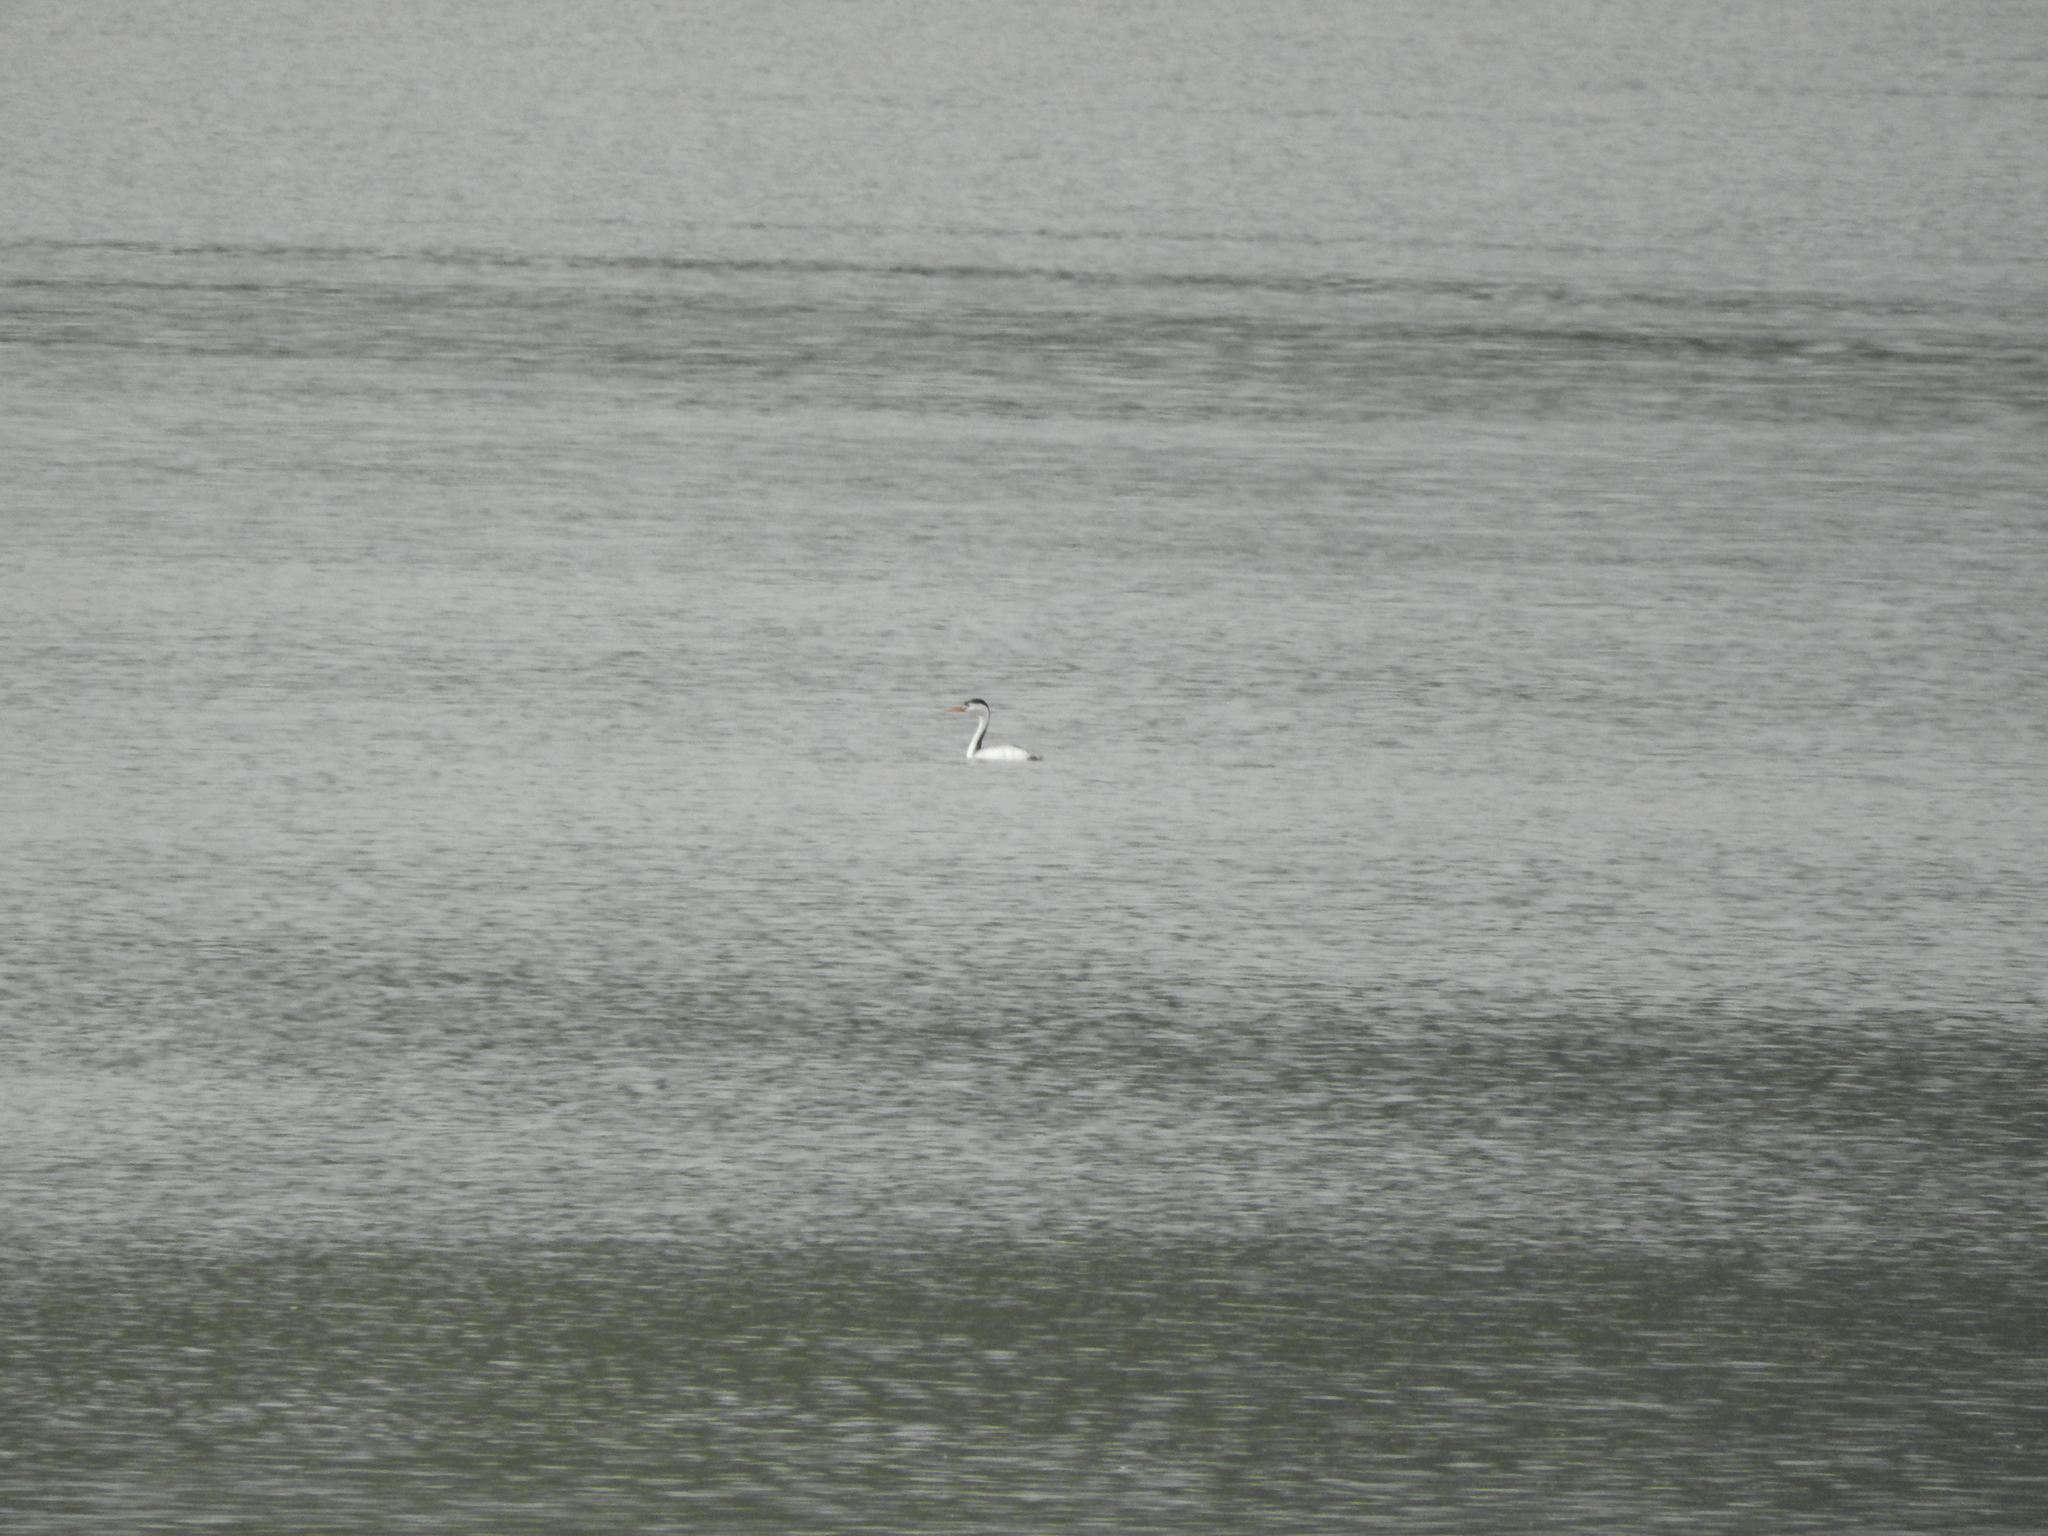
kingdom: Animalia
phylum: Chordata
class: Aves
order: Podicipediformes
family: Podicipedidae
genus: Aechmophorus
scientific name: Aechmophorus clarkii
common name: Clark's grebe
